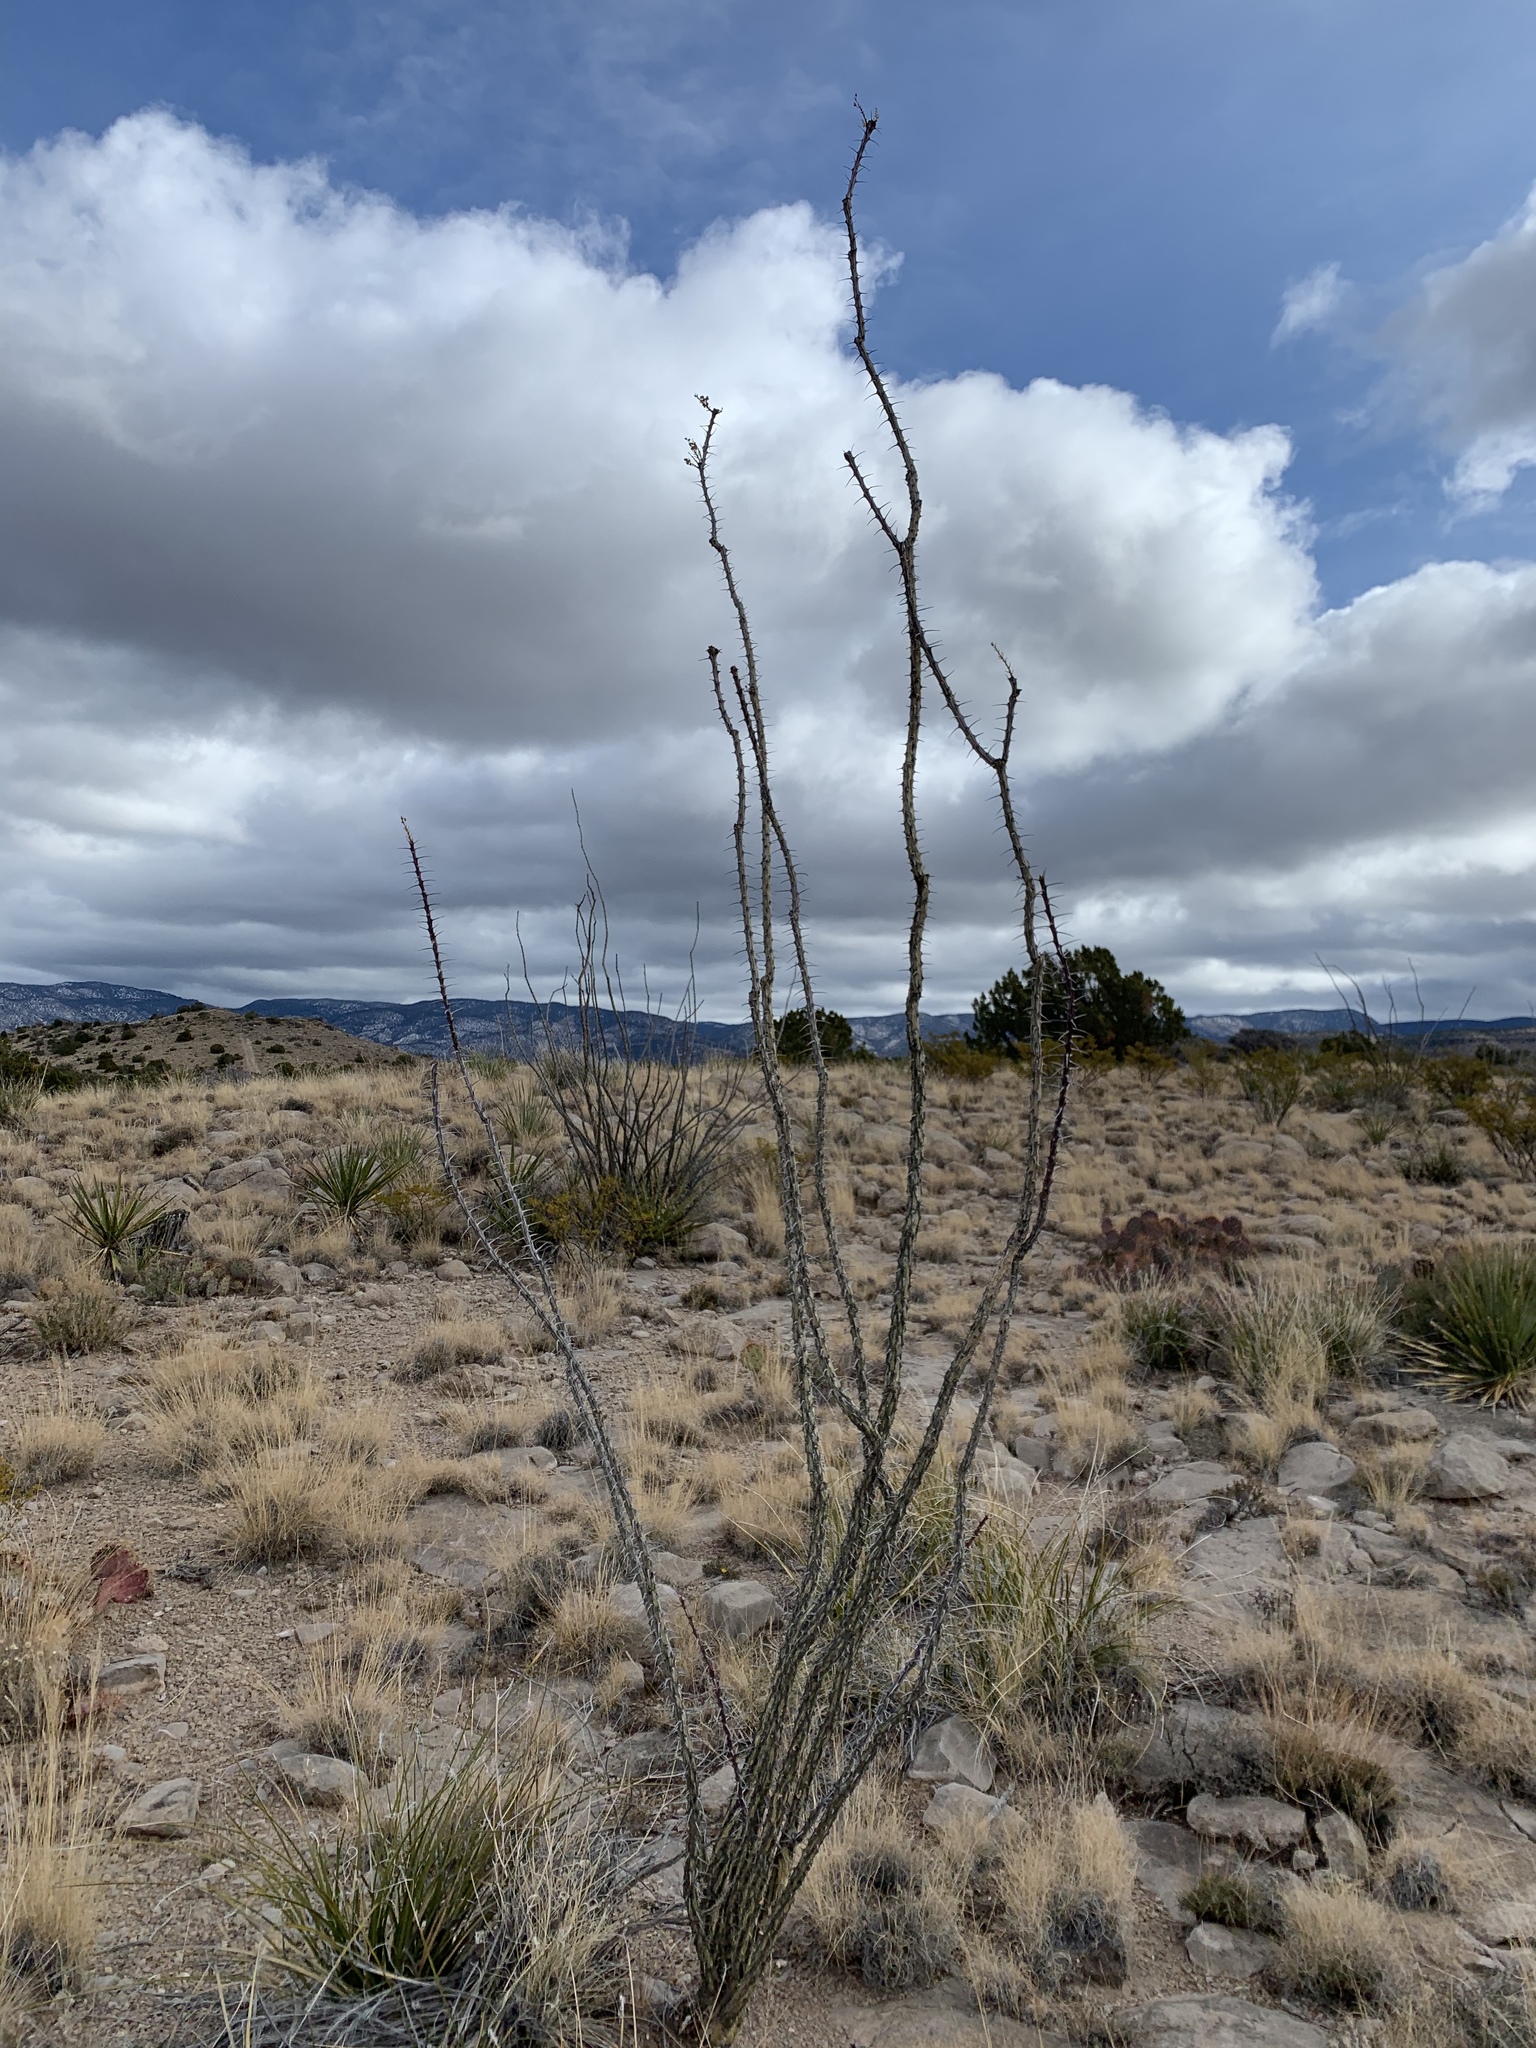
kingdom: Plantae
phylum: Tracheophyta
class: Magnoliopsida
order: Ericales
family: Fouquieriaceae
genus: Fouquieria
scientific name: Fouquieria splendens
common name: Vine-cactus
